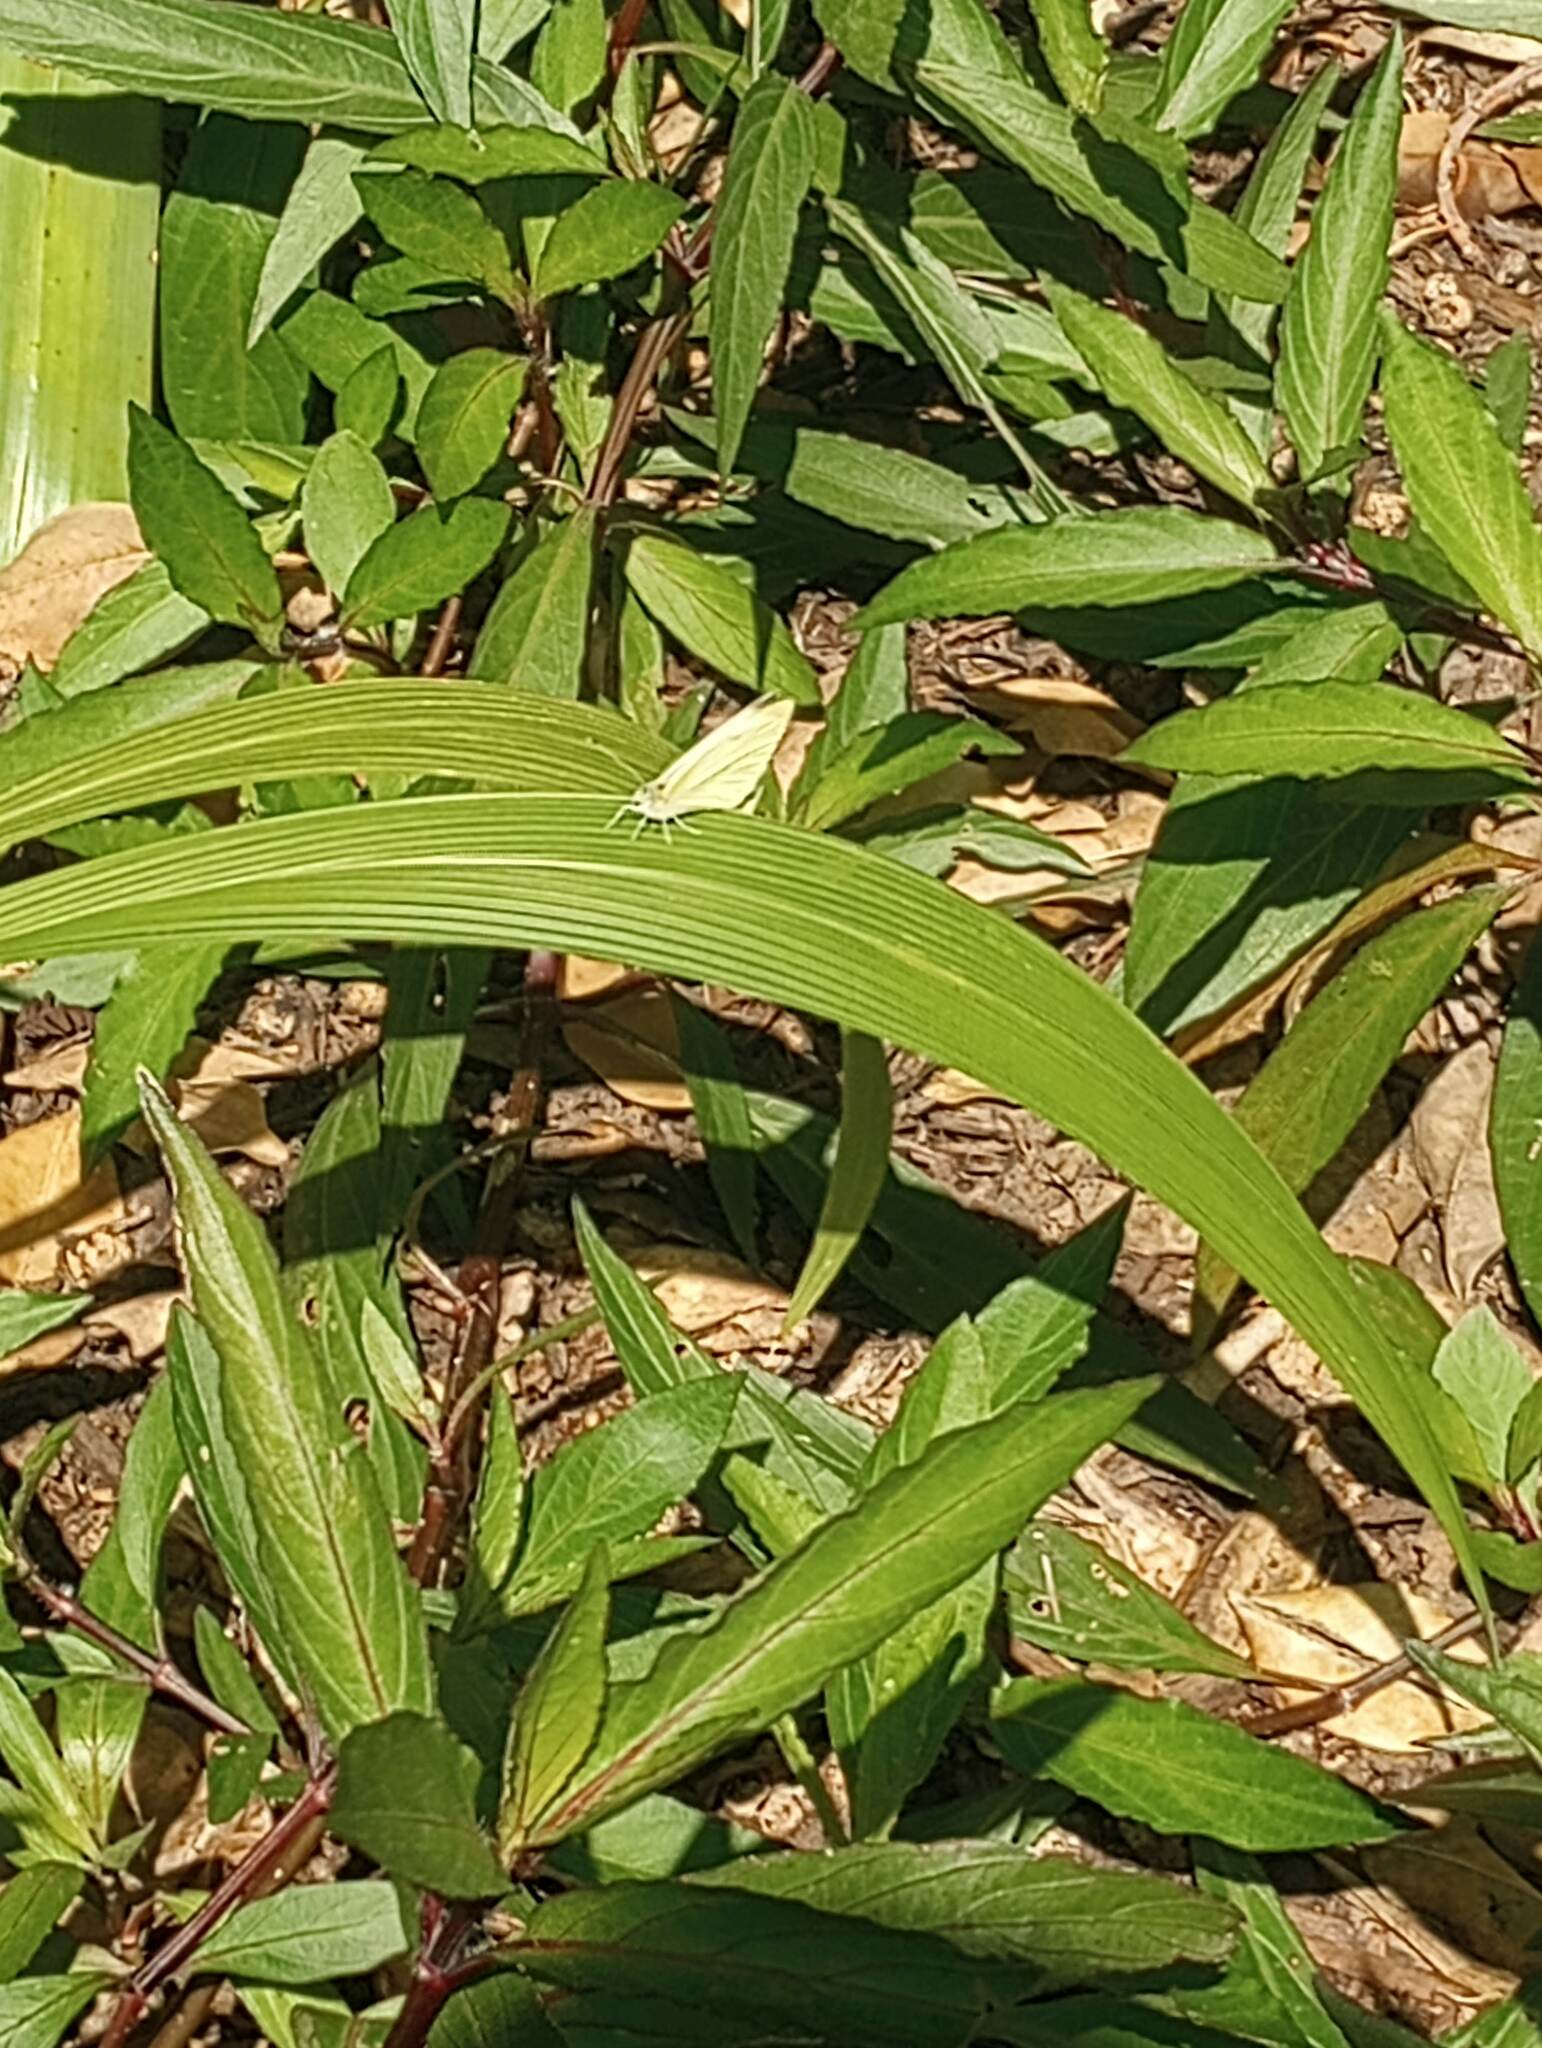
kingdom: Animalia
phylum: Arthropoda
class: Insecta
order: Lepidoptera
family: Pieridae
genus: Pieris
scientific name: Pieris rapae
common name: Small white
